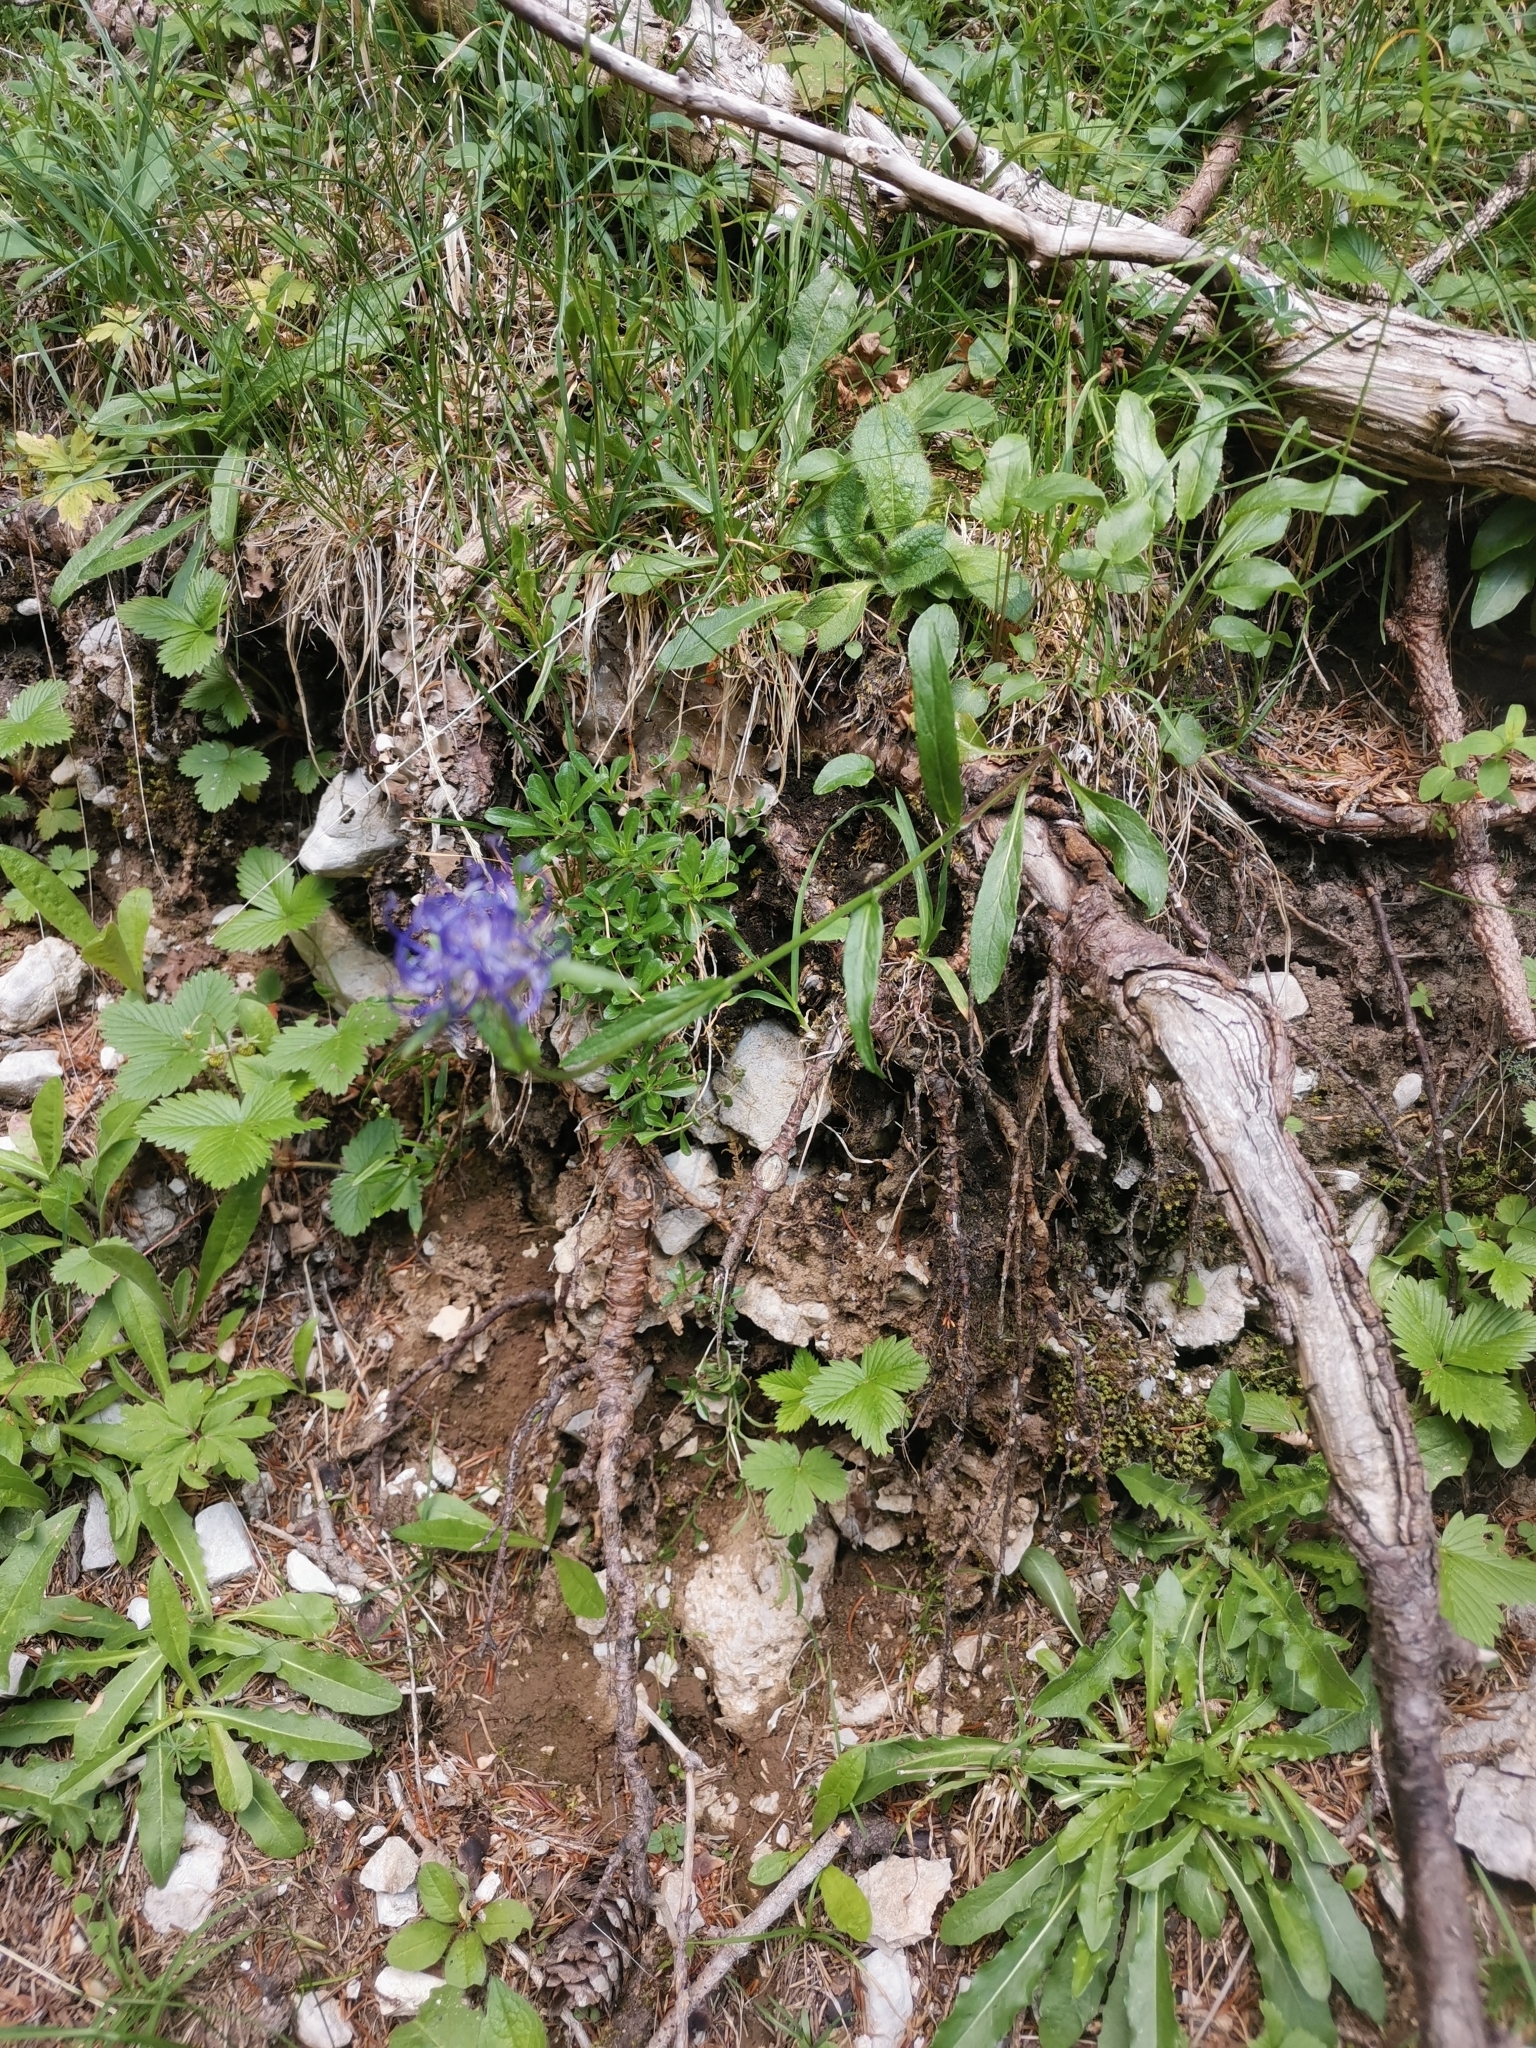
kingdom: Plantae
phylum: Tracheophyta
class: Magnoliopsida
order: Asterales
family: Campanulaceae
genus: Phyteuma
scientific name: Phyteuma orbiculare
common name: Round-headed rampion
